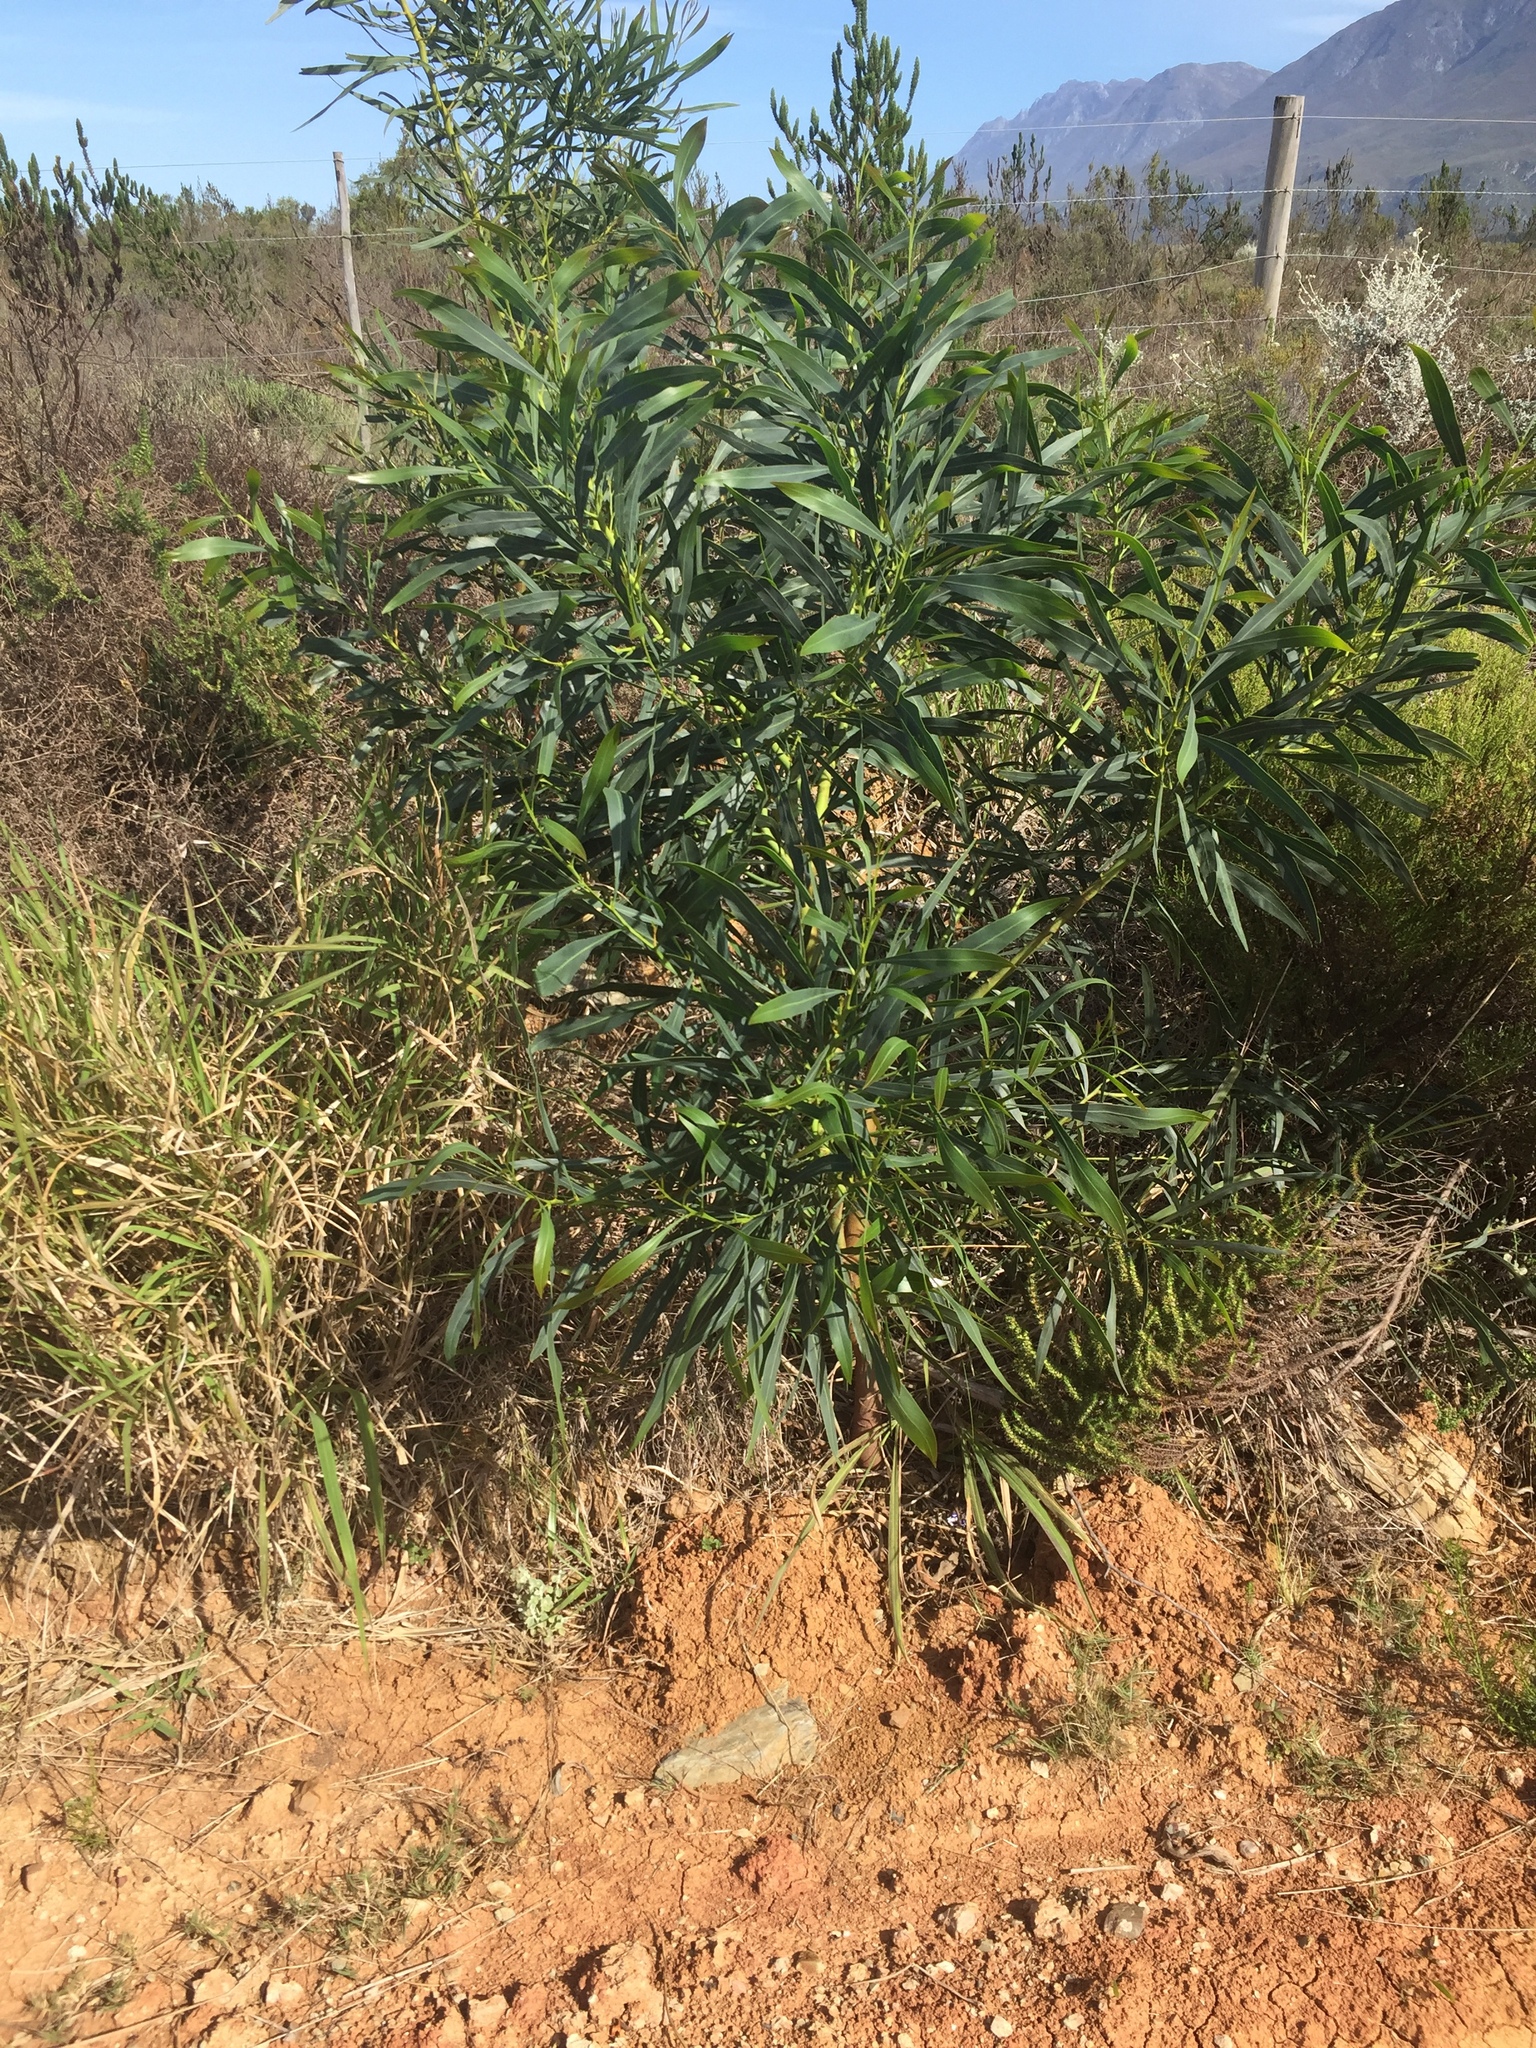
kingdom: Plantae
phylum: Tracheophyta
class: Magnoliopsida
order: Fabales
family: Fabaceae
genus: Acacia
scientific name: Acacia saligna
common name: Orange wattle
